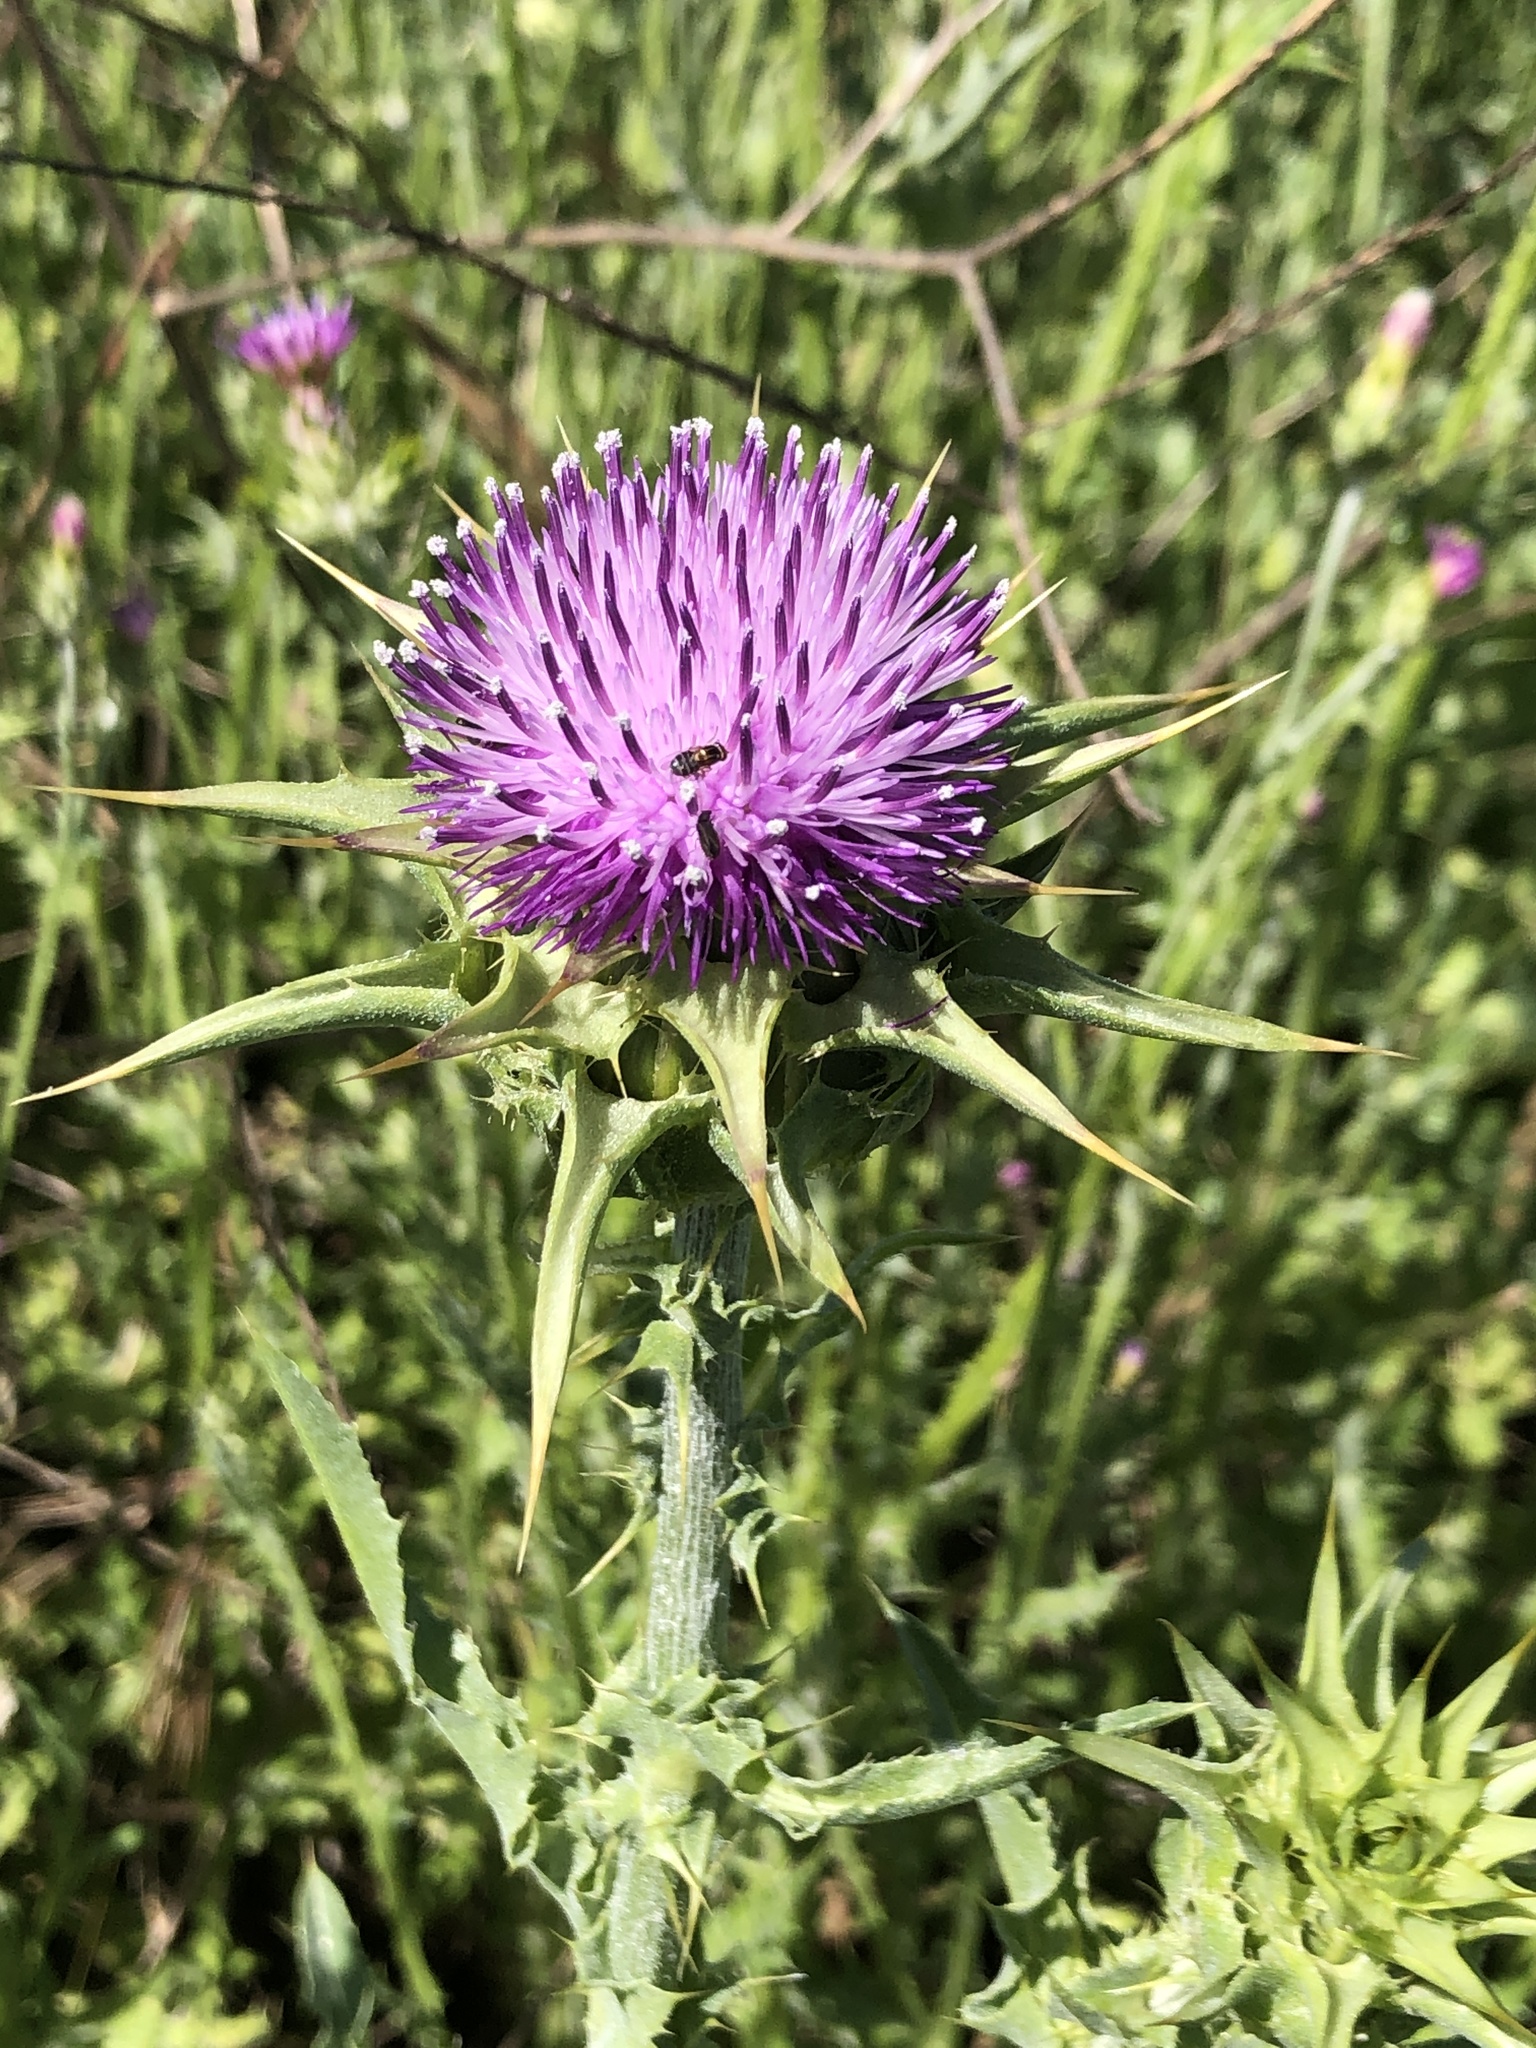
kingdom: Plantae
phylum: Tracheophyta
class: Magnoliopsida
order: Asterales
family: Asteraceae
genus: Silybum
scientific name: Silybum marianum
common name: Milk thistle
